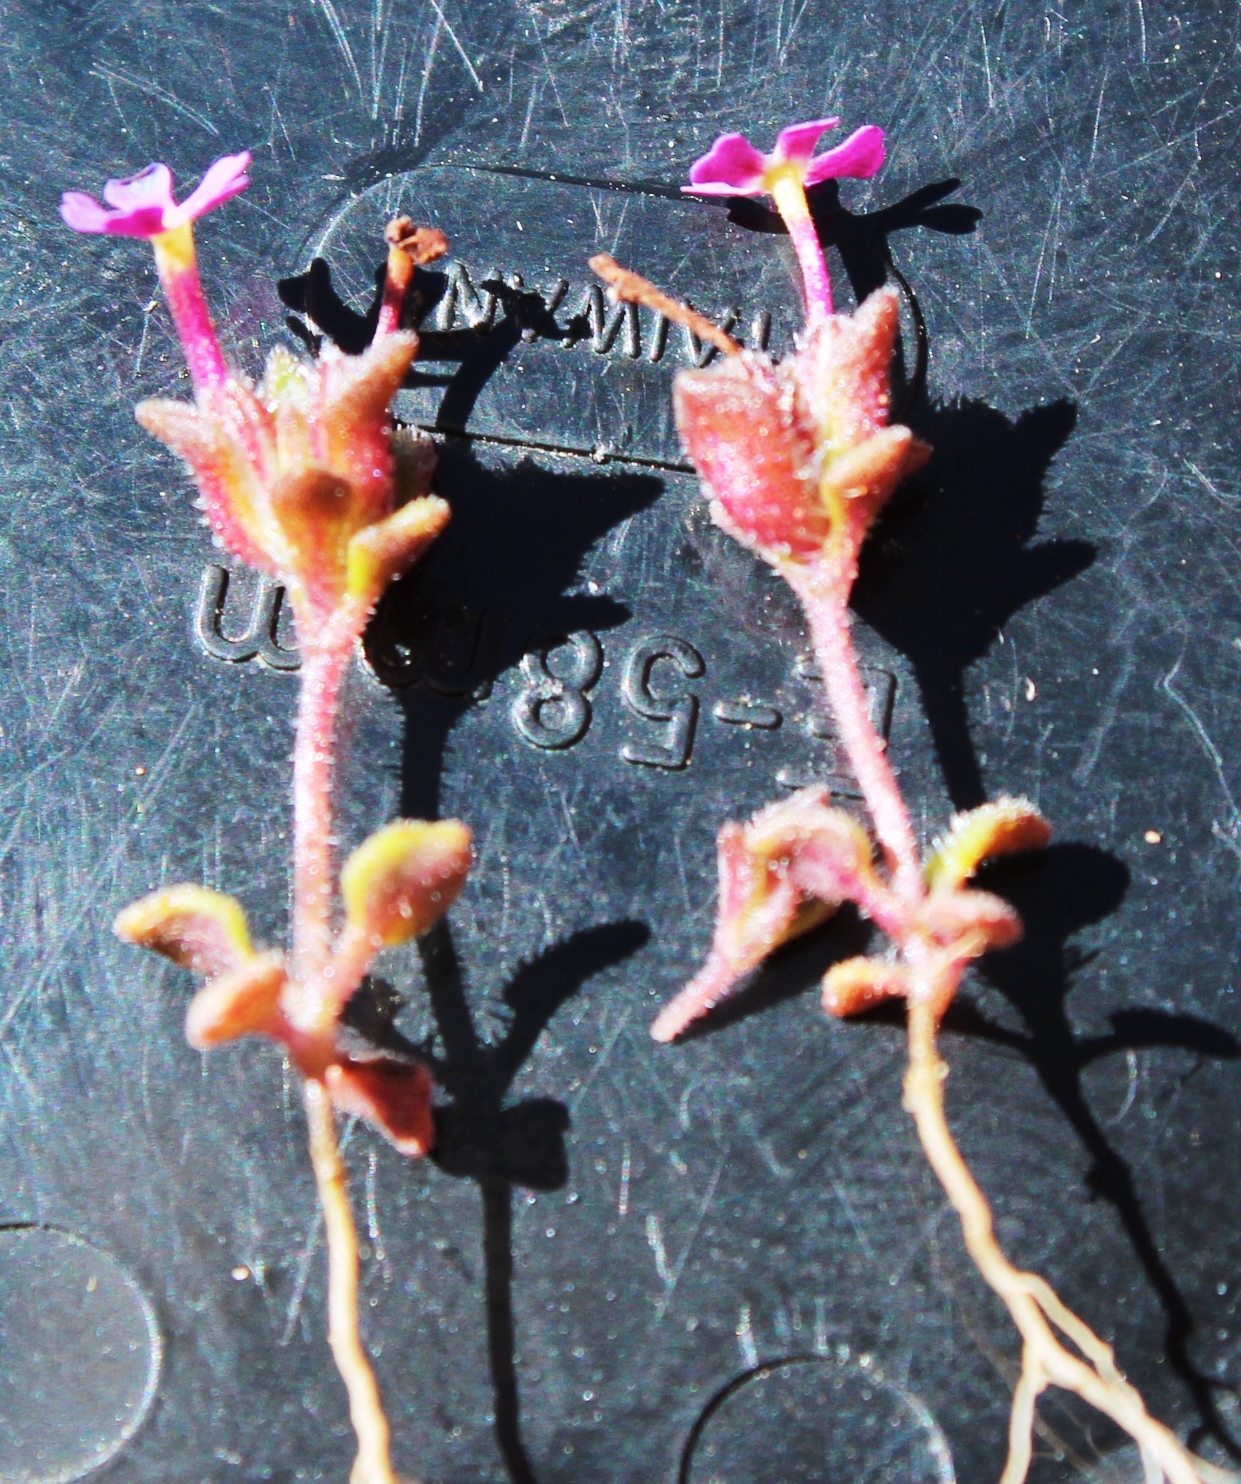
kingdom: Plantae
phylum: Tracheophyta
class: Magnoliopsida
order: Lamiales
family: Scrophulariaceae
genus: Zaluzianskya
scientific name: Zaluzianskya minima
